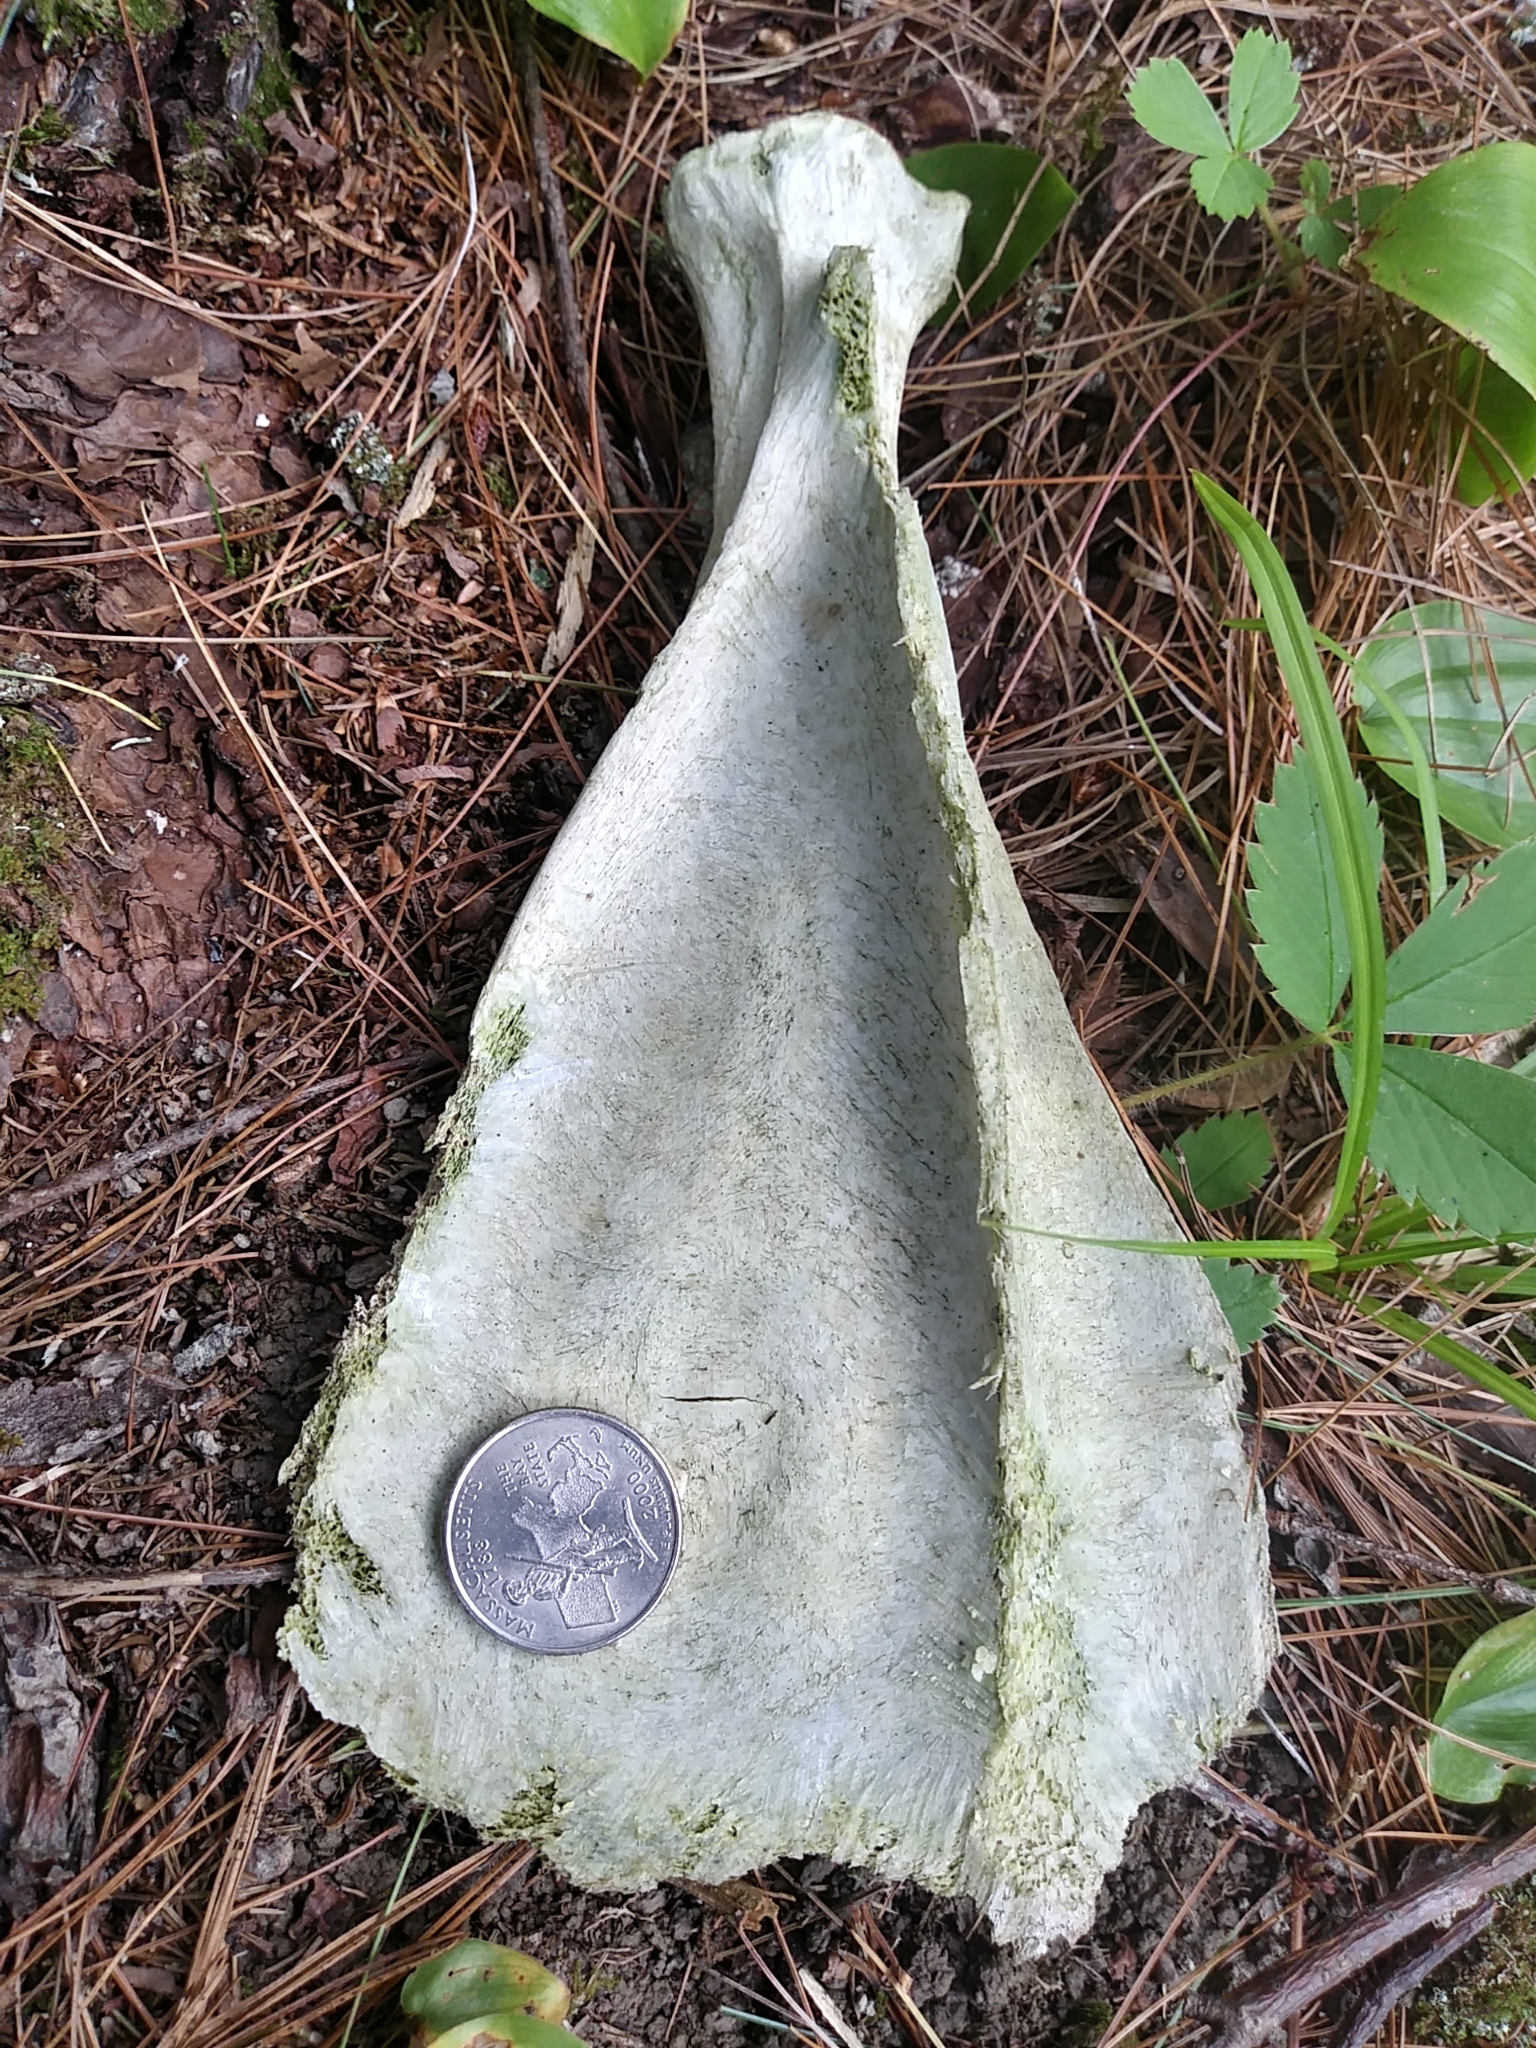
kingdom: Animalia
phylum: Chordata
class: Mammalia
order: Artiodactyla
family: Cervidae
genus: Odocoileus
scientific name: Odocoileus virginianus
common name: White-tailed deer
